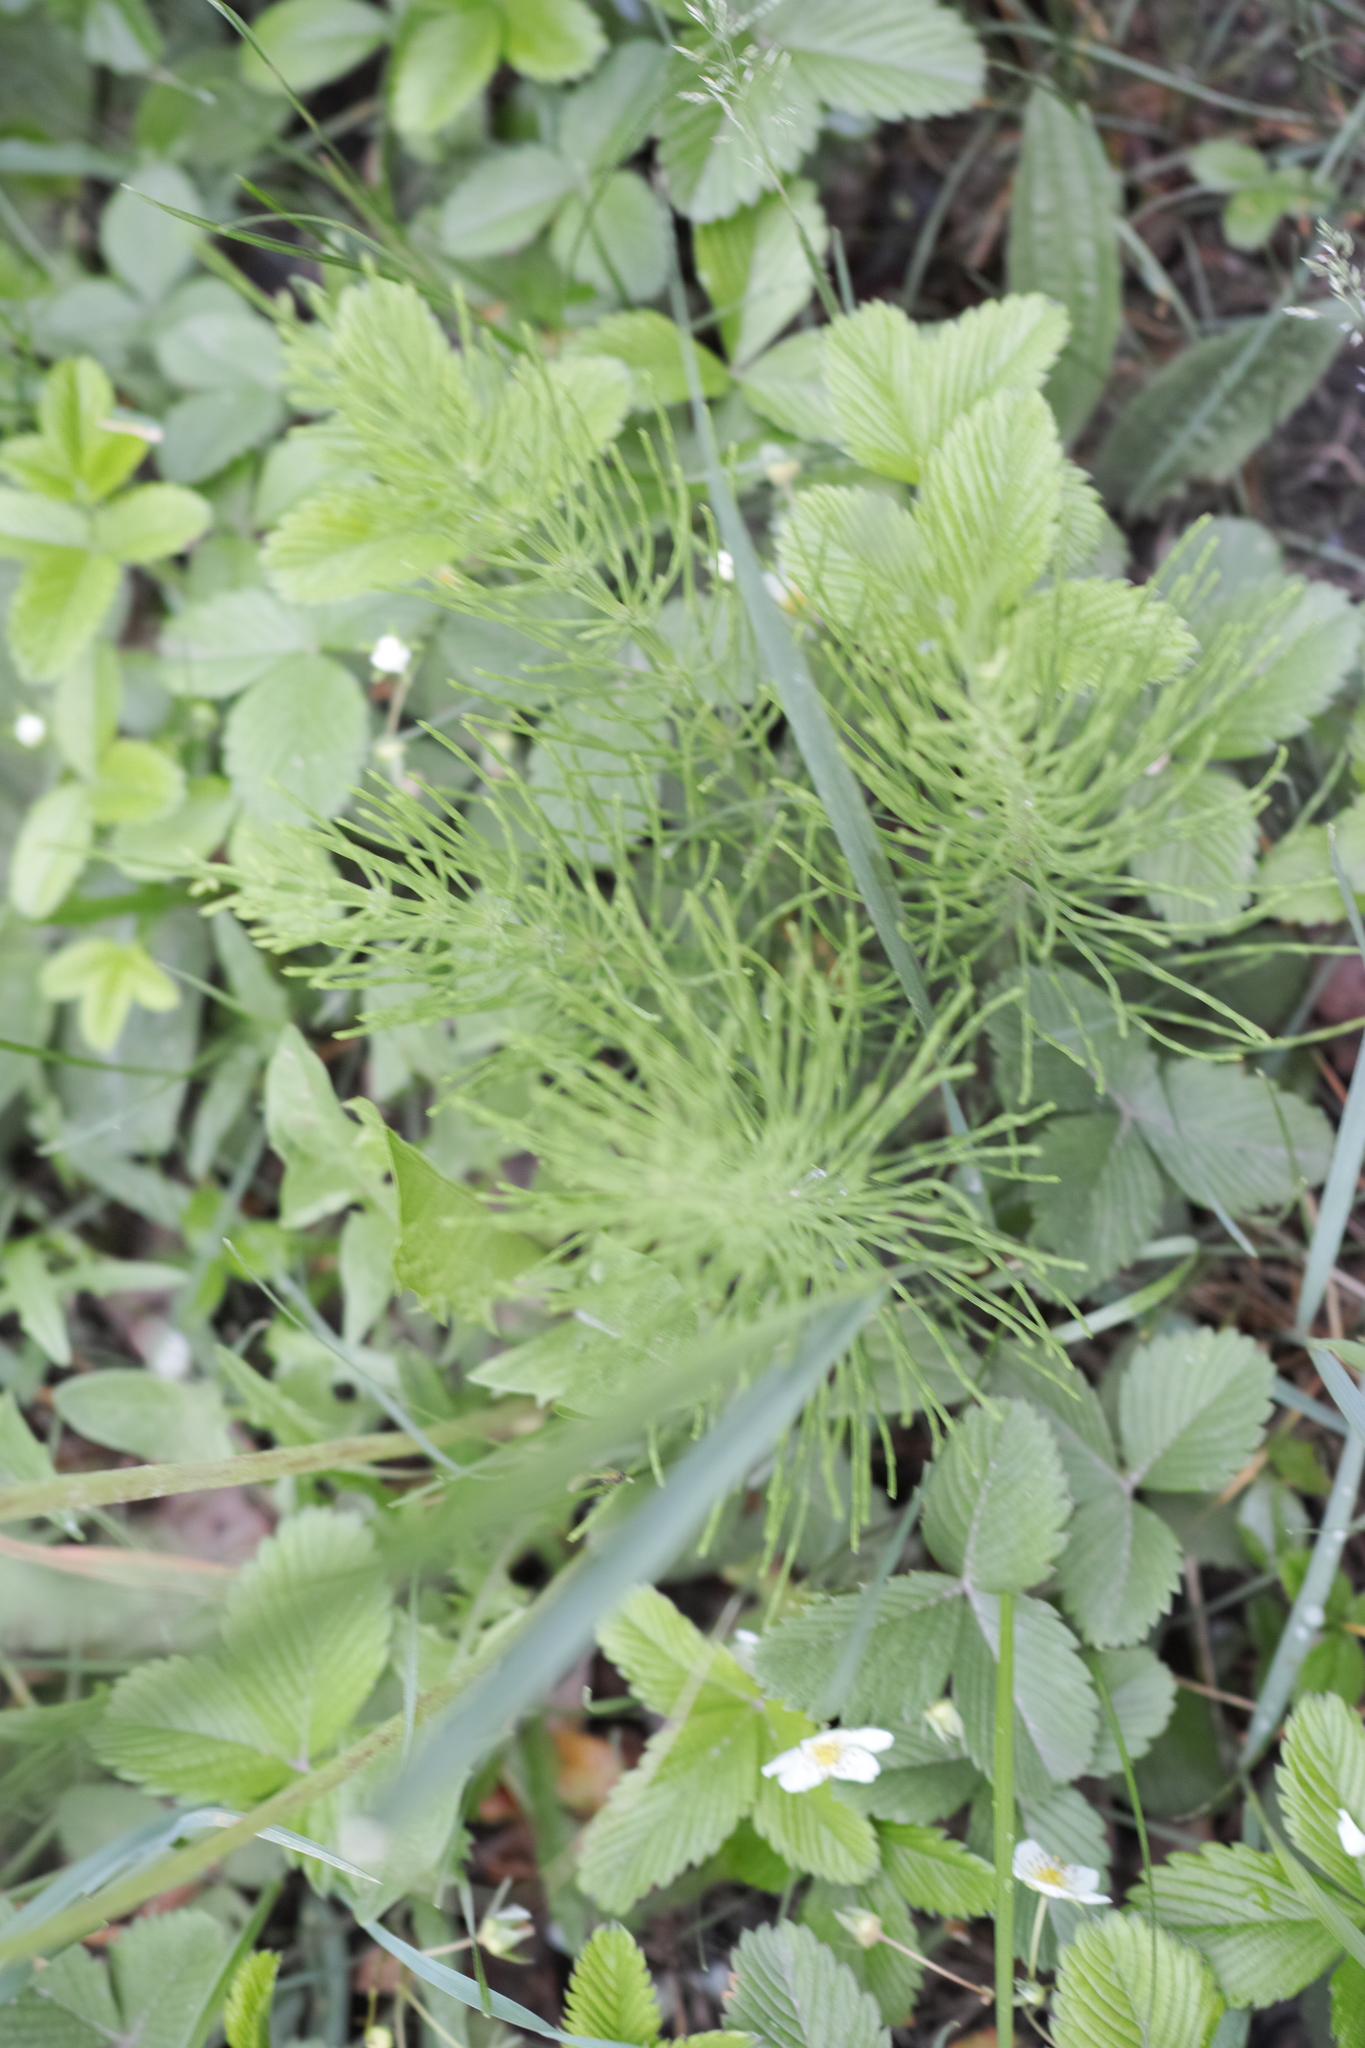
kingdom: Plantae
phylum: Tracheophyta
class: Polypodiopsida
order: Equisetales
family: Equisetaceae
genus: Equisetum
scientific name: Equisetum arvense
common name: Field horsetail
